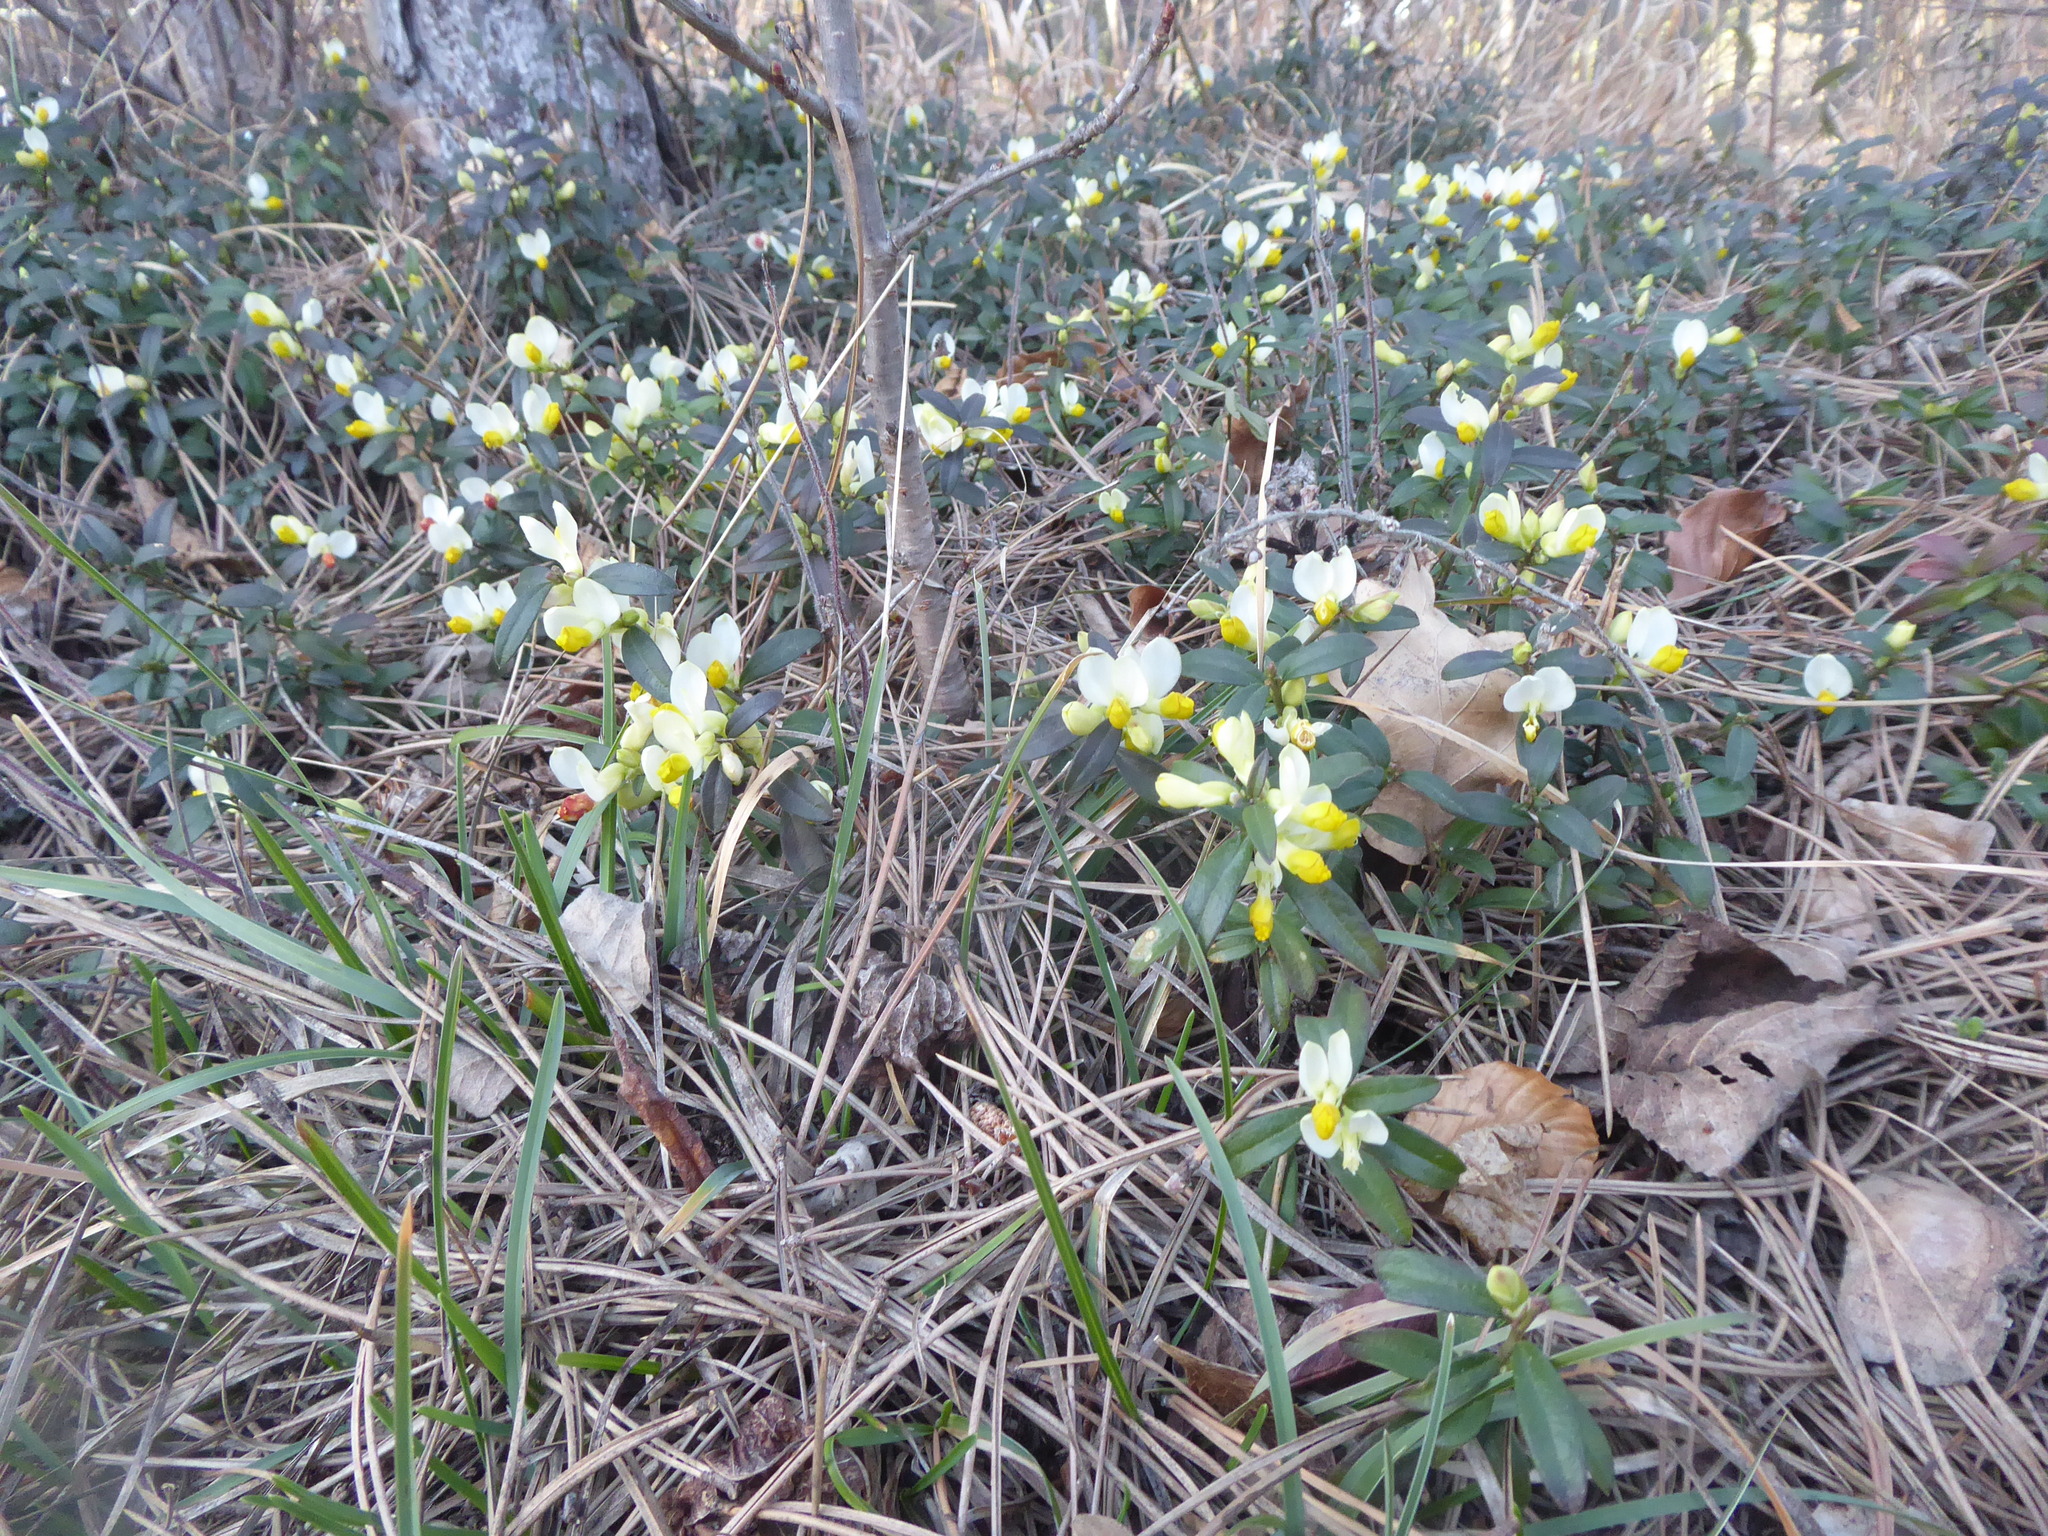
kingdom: Plantae
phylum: Tracheophyta
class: Magnoliopsida
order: Fabales
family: Polygalaceae
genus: Polygaloides
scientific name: Polygaloides chamaebuxus
